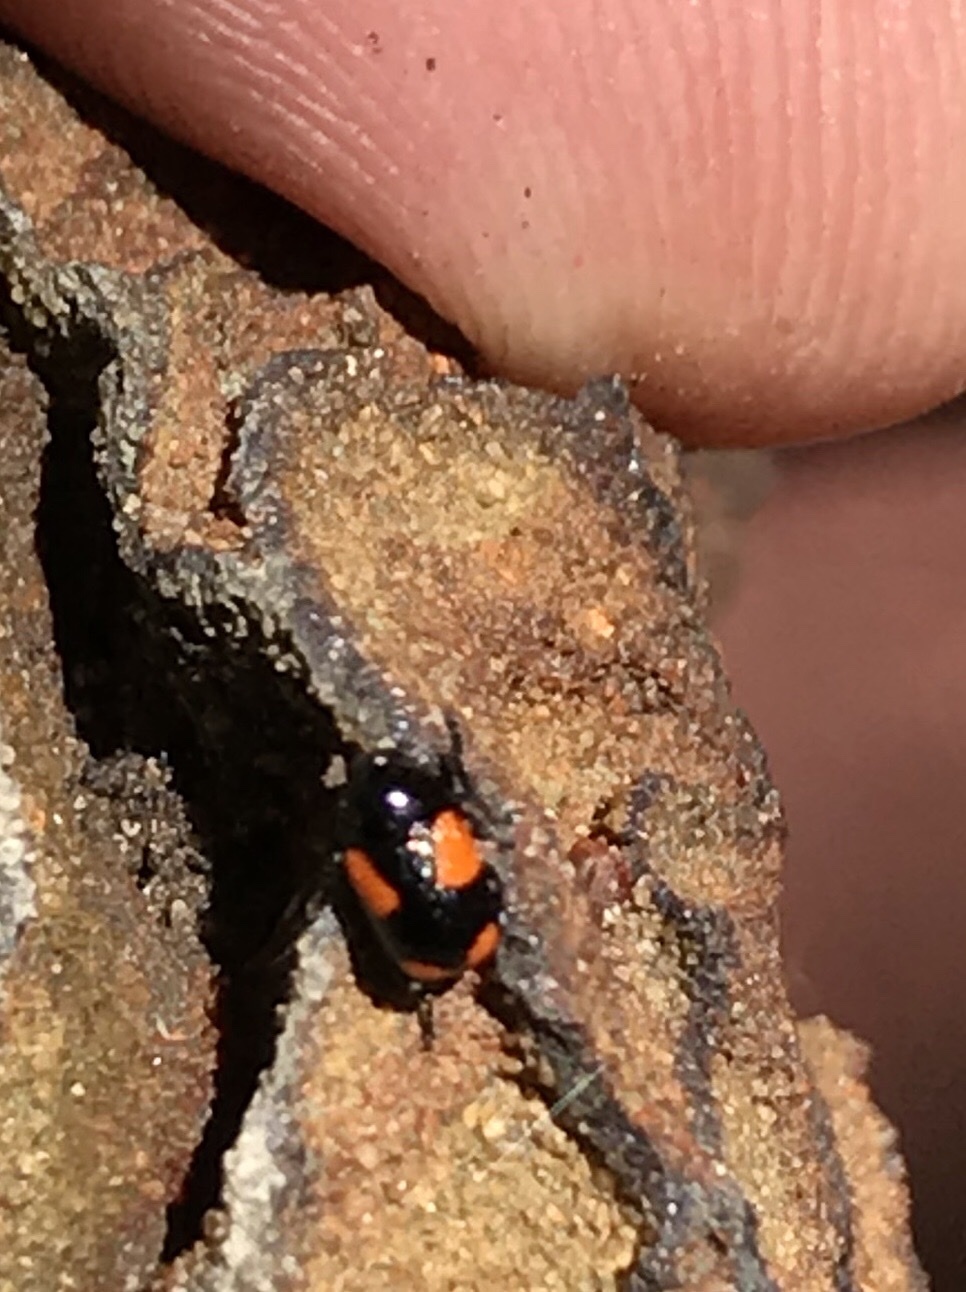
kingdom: Animalia
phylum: Arthropoda
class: Insecta
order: Coleoptera
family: Chrysomelidae
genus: Cryptocephalus
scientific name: Cryptocephalus quadruplex
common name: Black and red sumac leaf beetle
